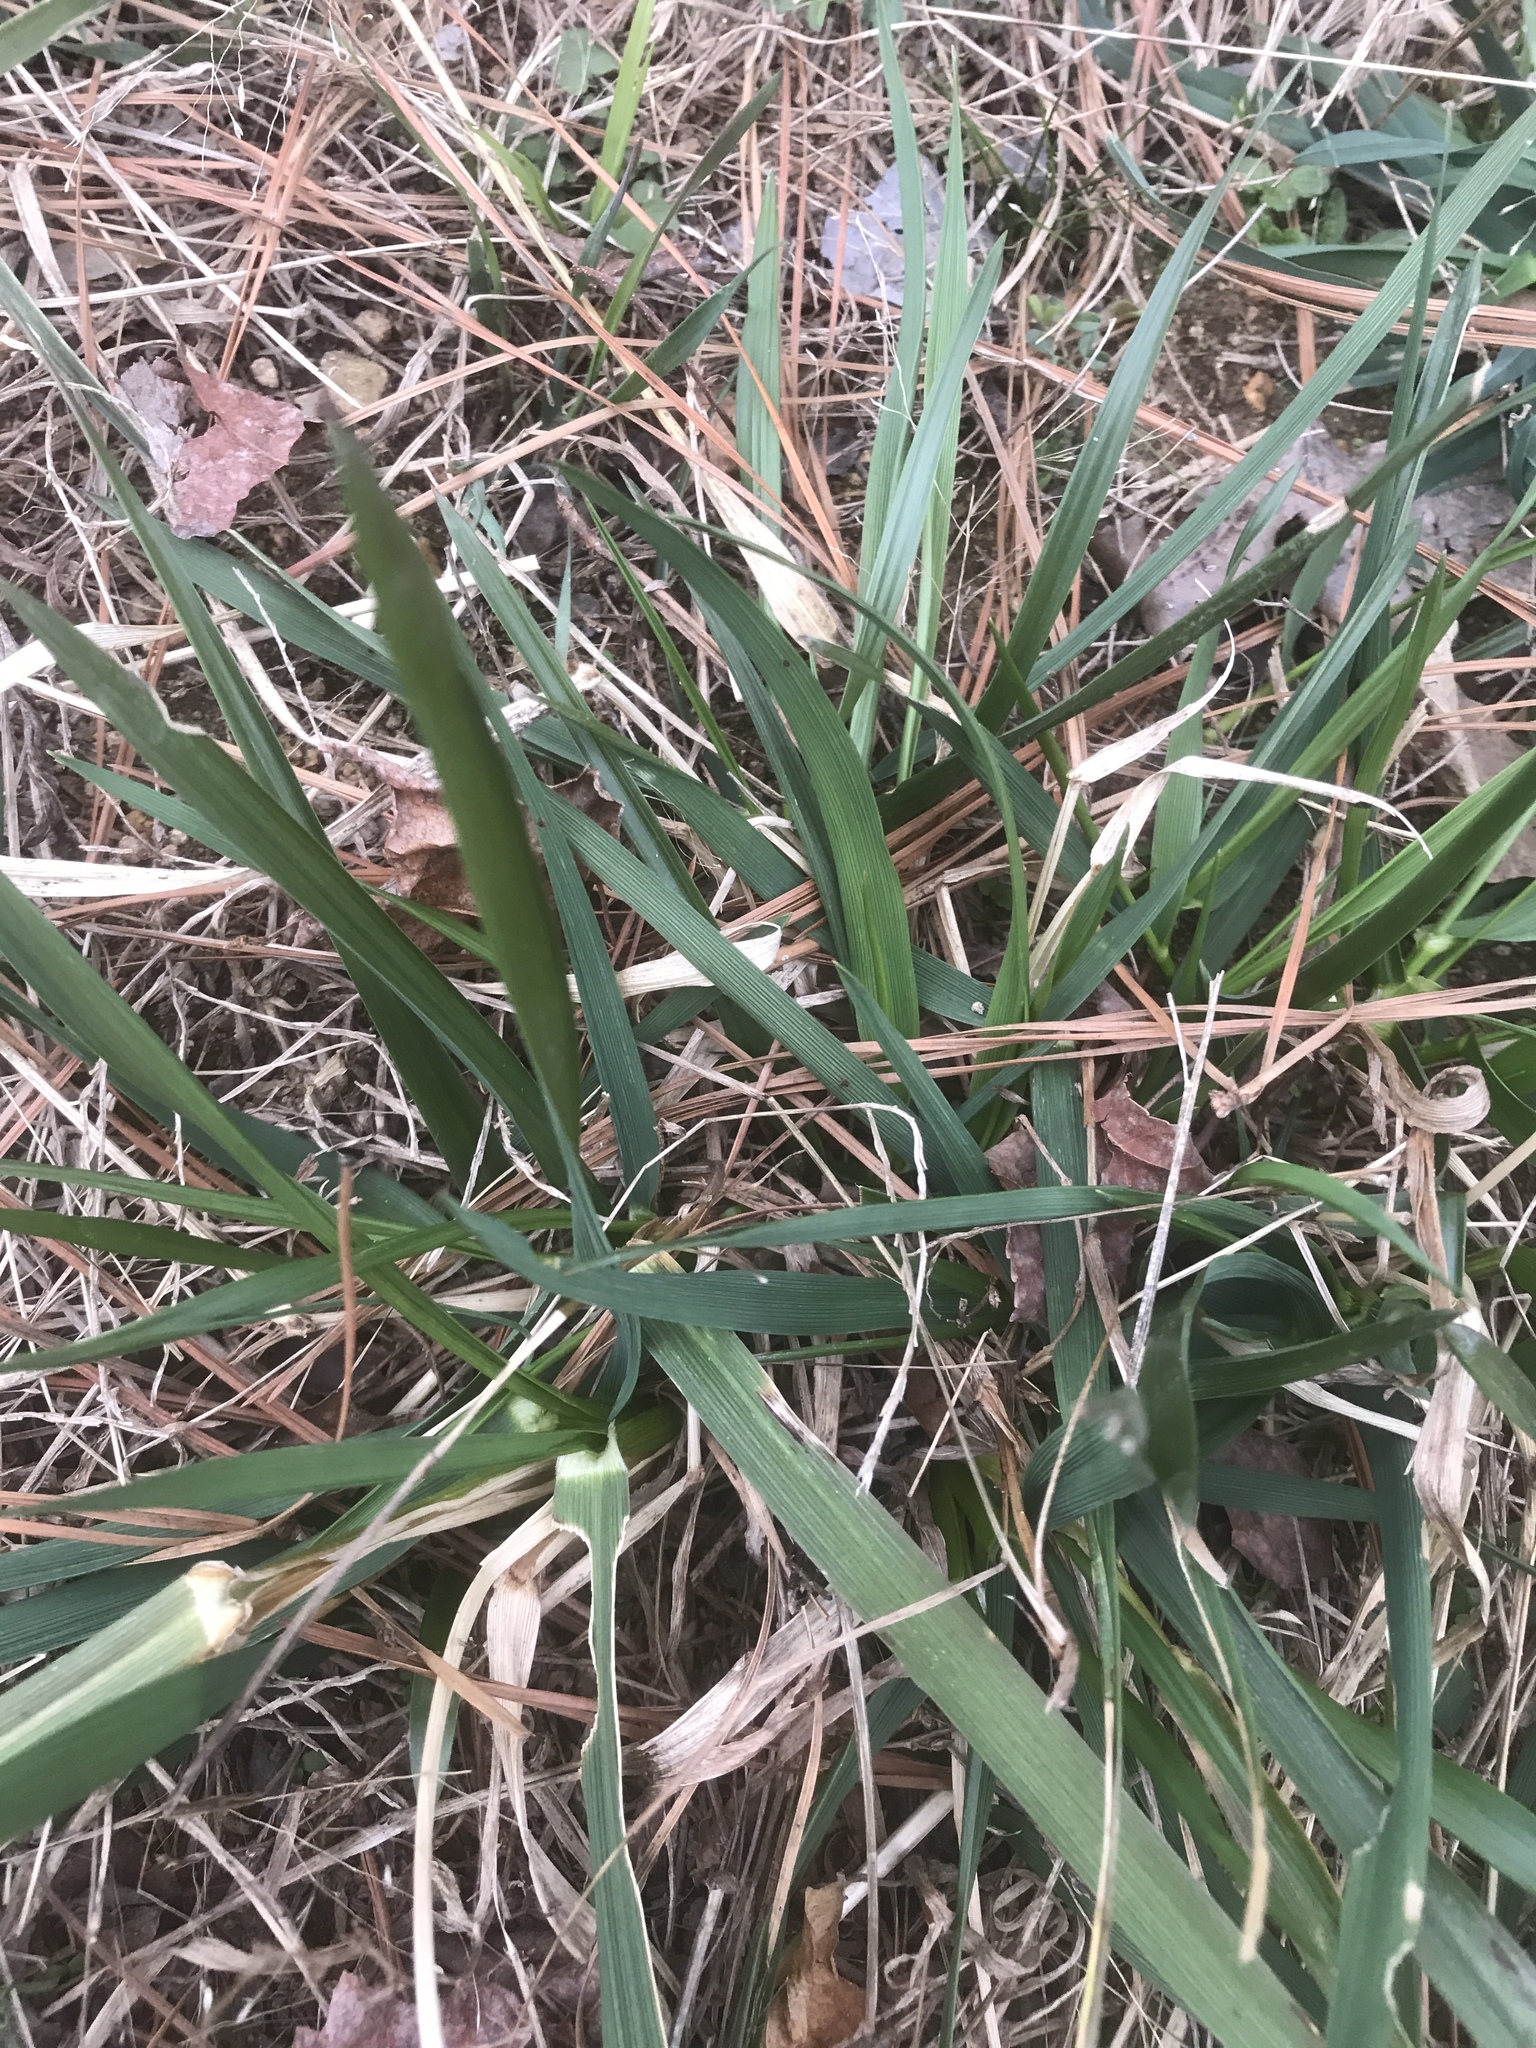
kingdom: Plantae
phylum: Tracheophyta
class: Liliopsida
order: Poales
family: Poaceae
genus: Lolium
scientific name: Lolium arundinaceum
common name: Reed fescue
